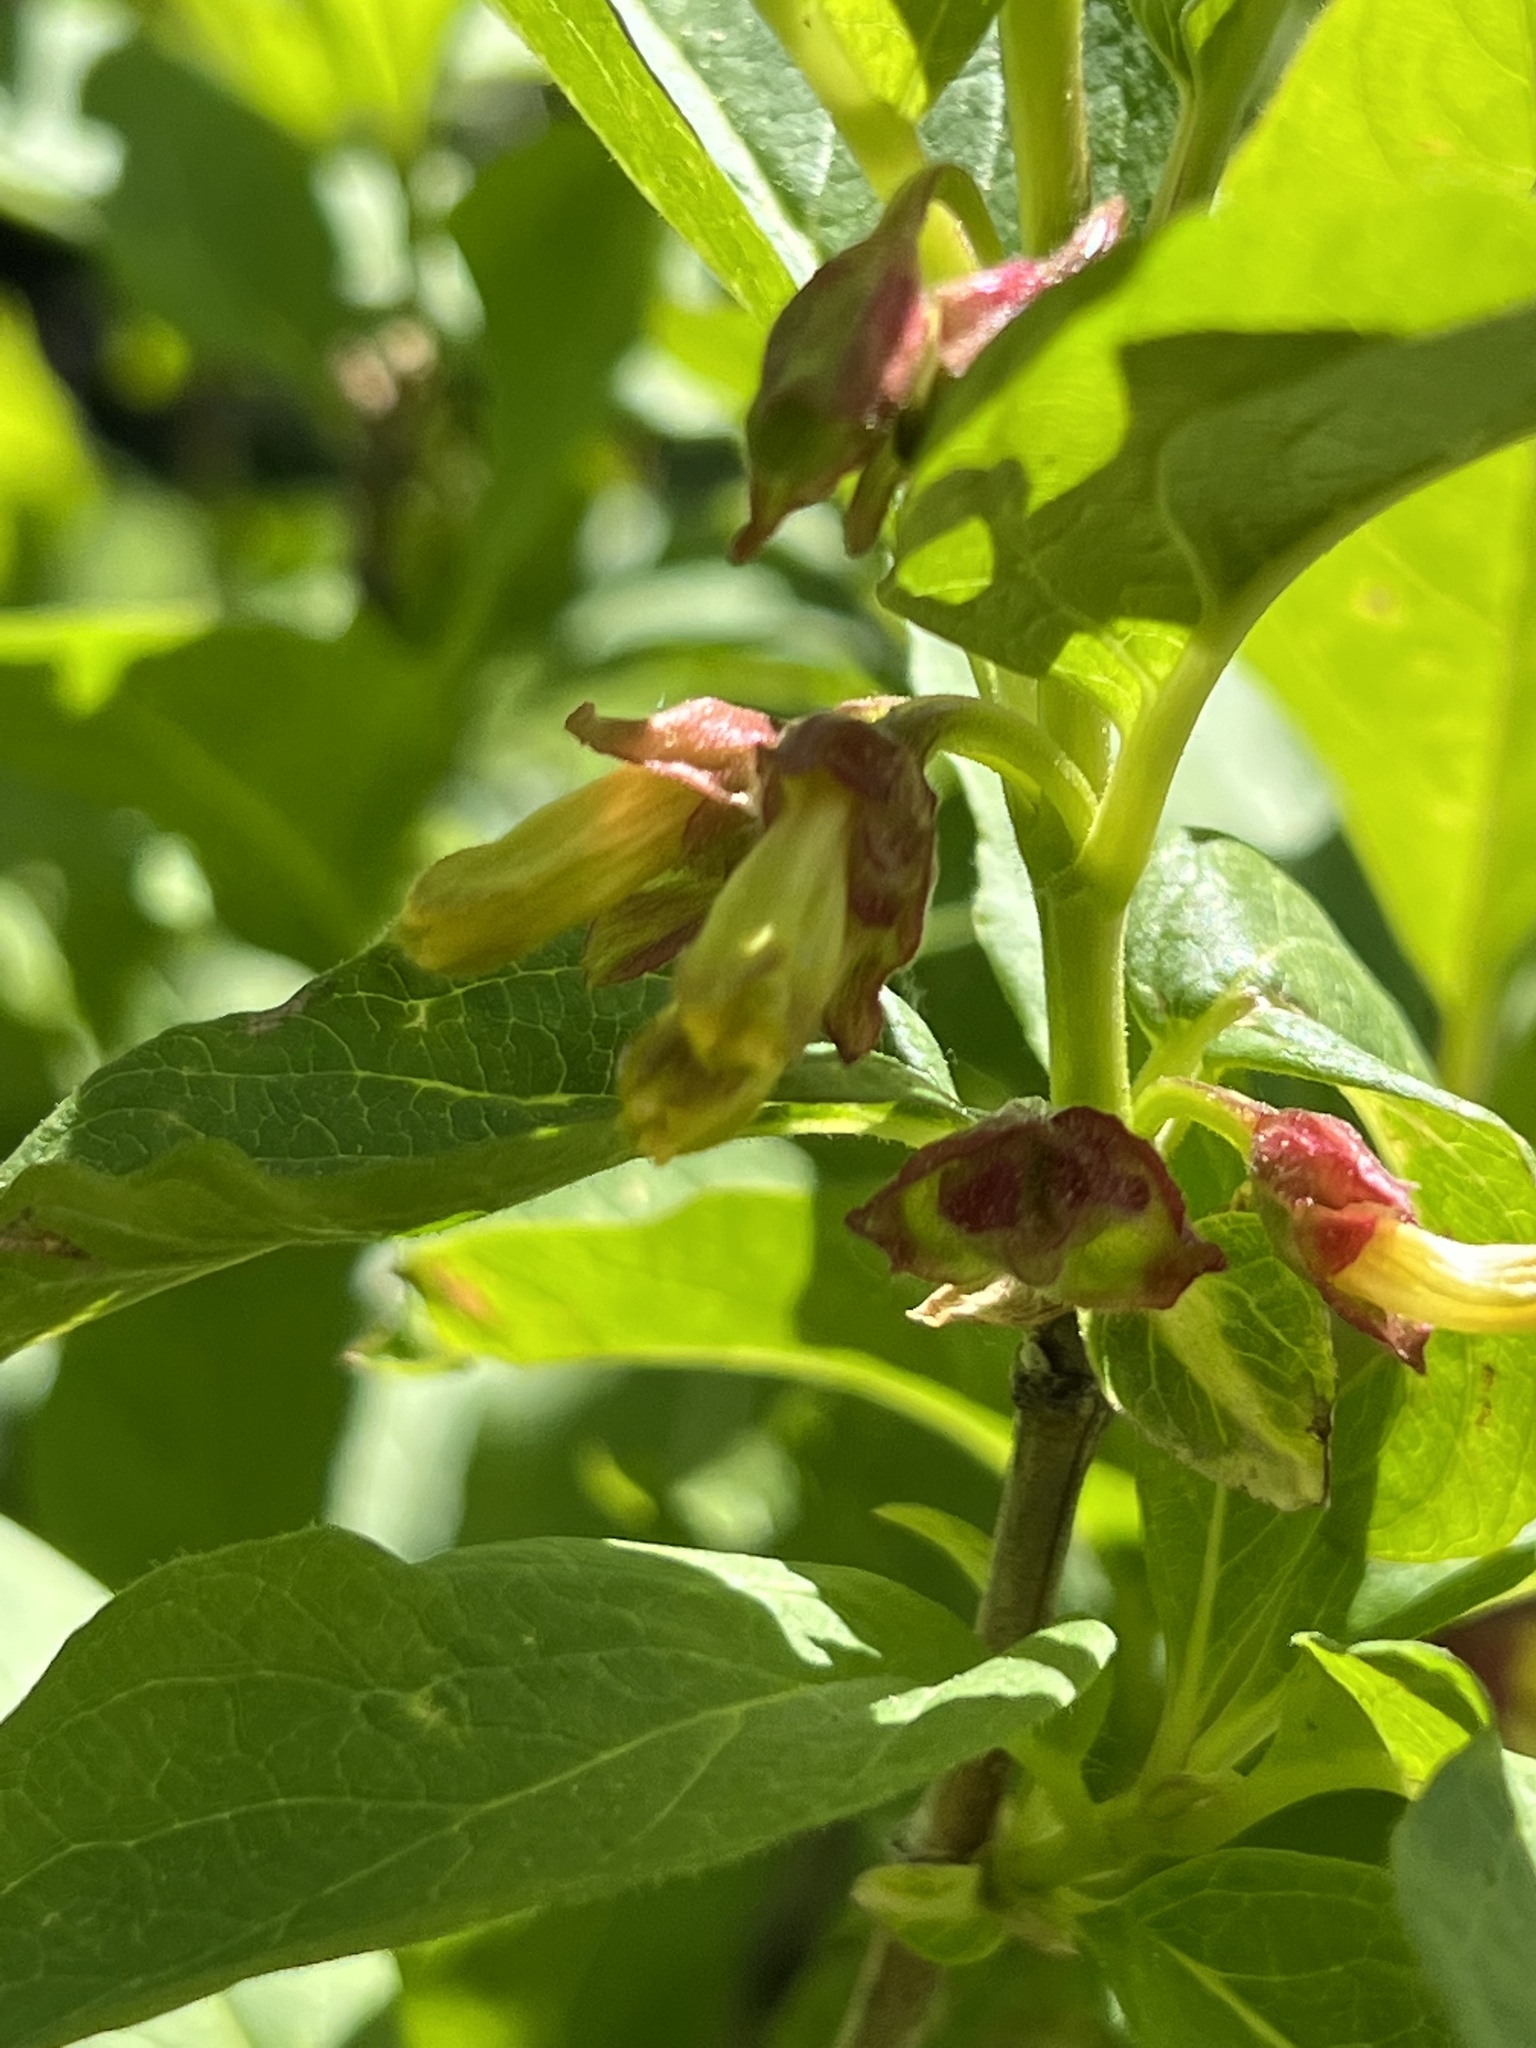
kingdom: Plantae
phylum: Tracheophyta
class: Magnoliopsida
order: Dipsacales
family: Caprifoliaceae
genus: Lonicera
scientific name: Lonicera involucrata
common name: Californian honeysuckle
